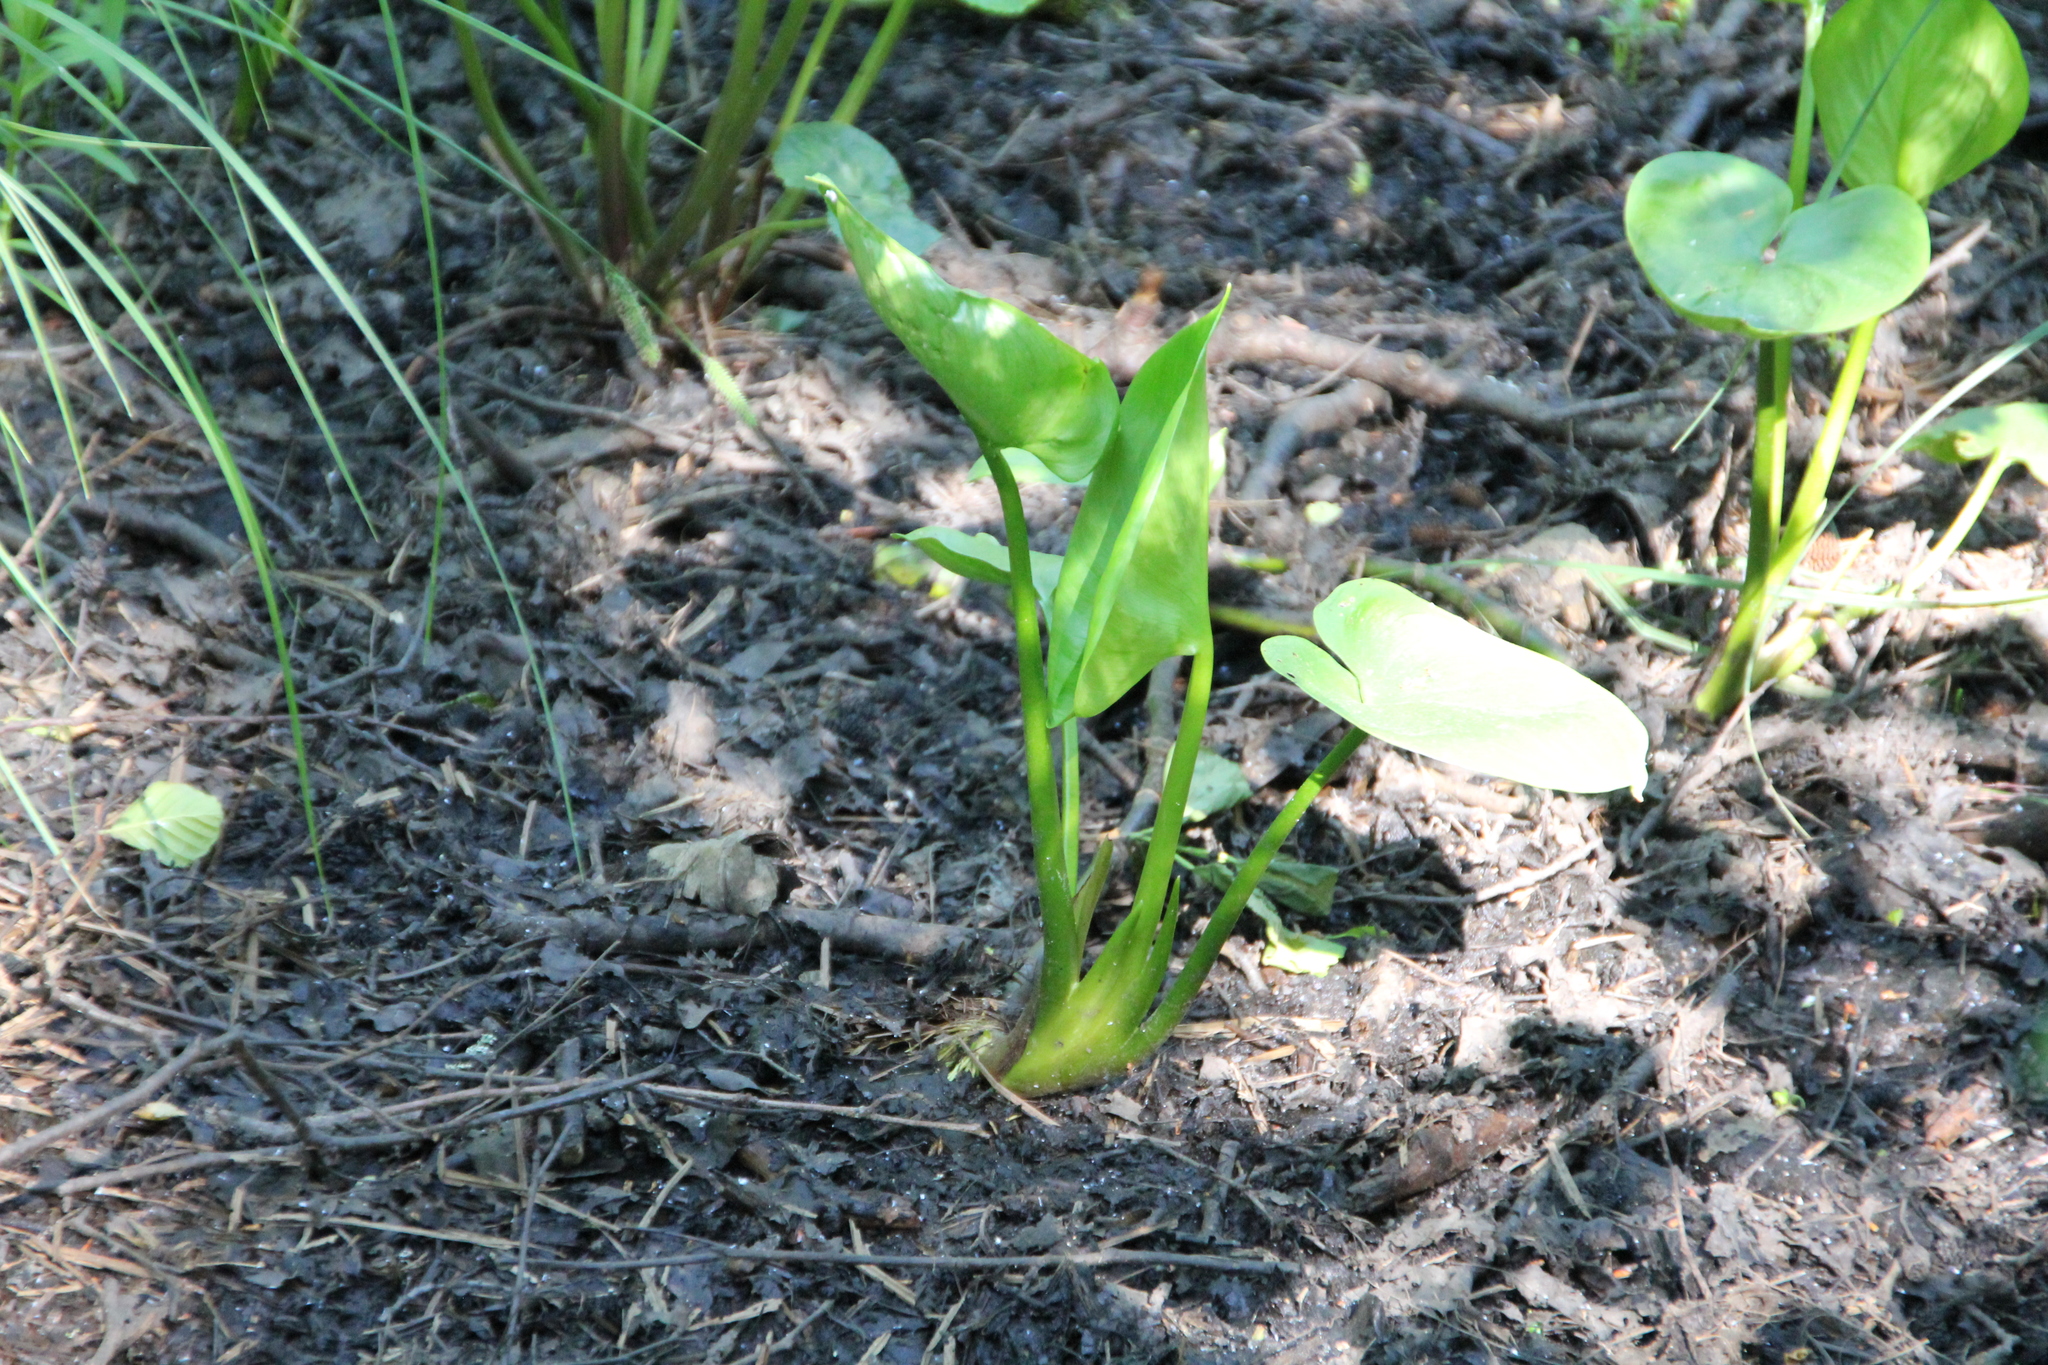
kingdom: Plantae
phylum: Tracheophyta
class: Liliopsida
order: Alismatales
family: Araceae
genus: Calla
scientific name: Calla palustris
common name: Bog arum
